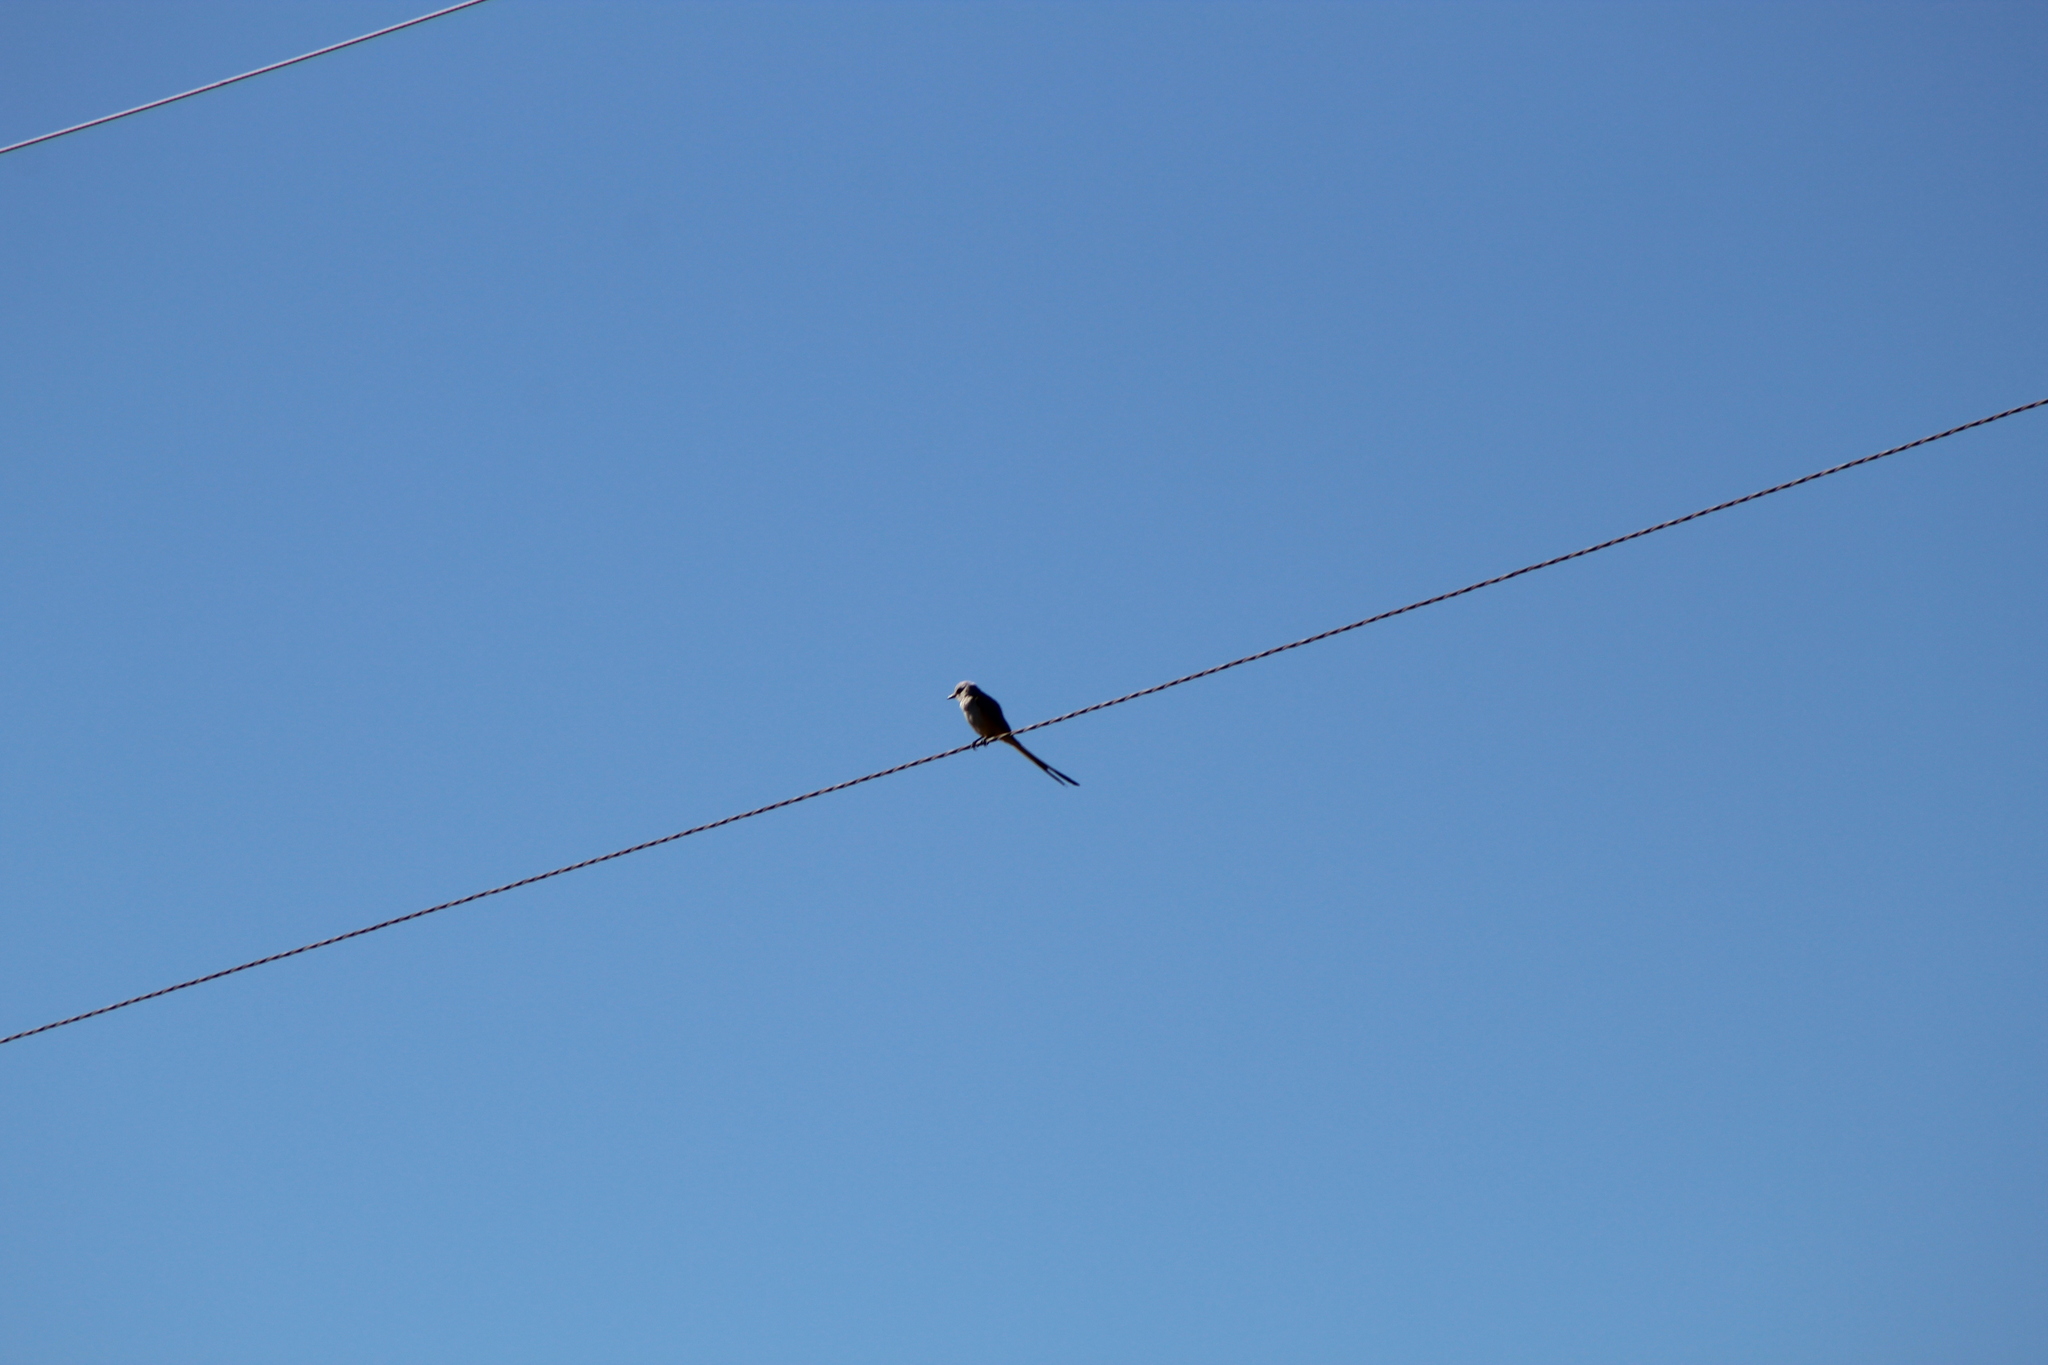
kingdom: Animalia
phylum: Chordata
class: Aves
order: Passeriformes
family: Tyrannidae
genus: Tyrannus
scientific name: Tyrannus forficatus
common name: Scissor-tailed flycatcher
